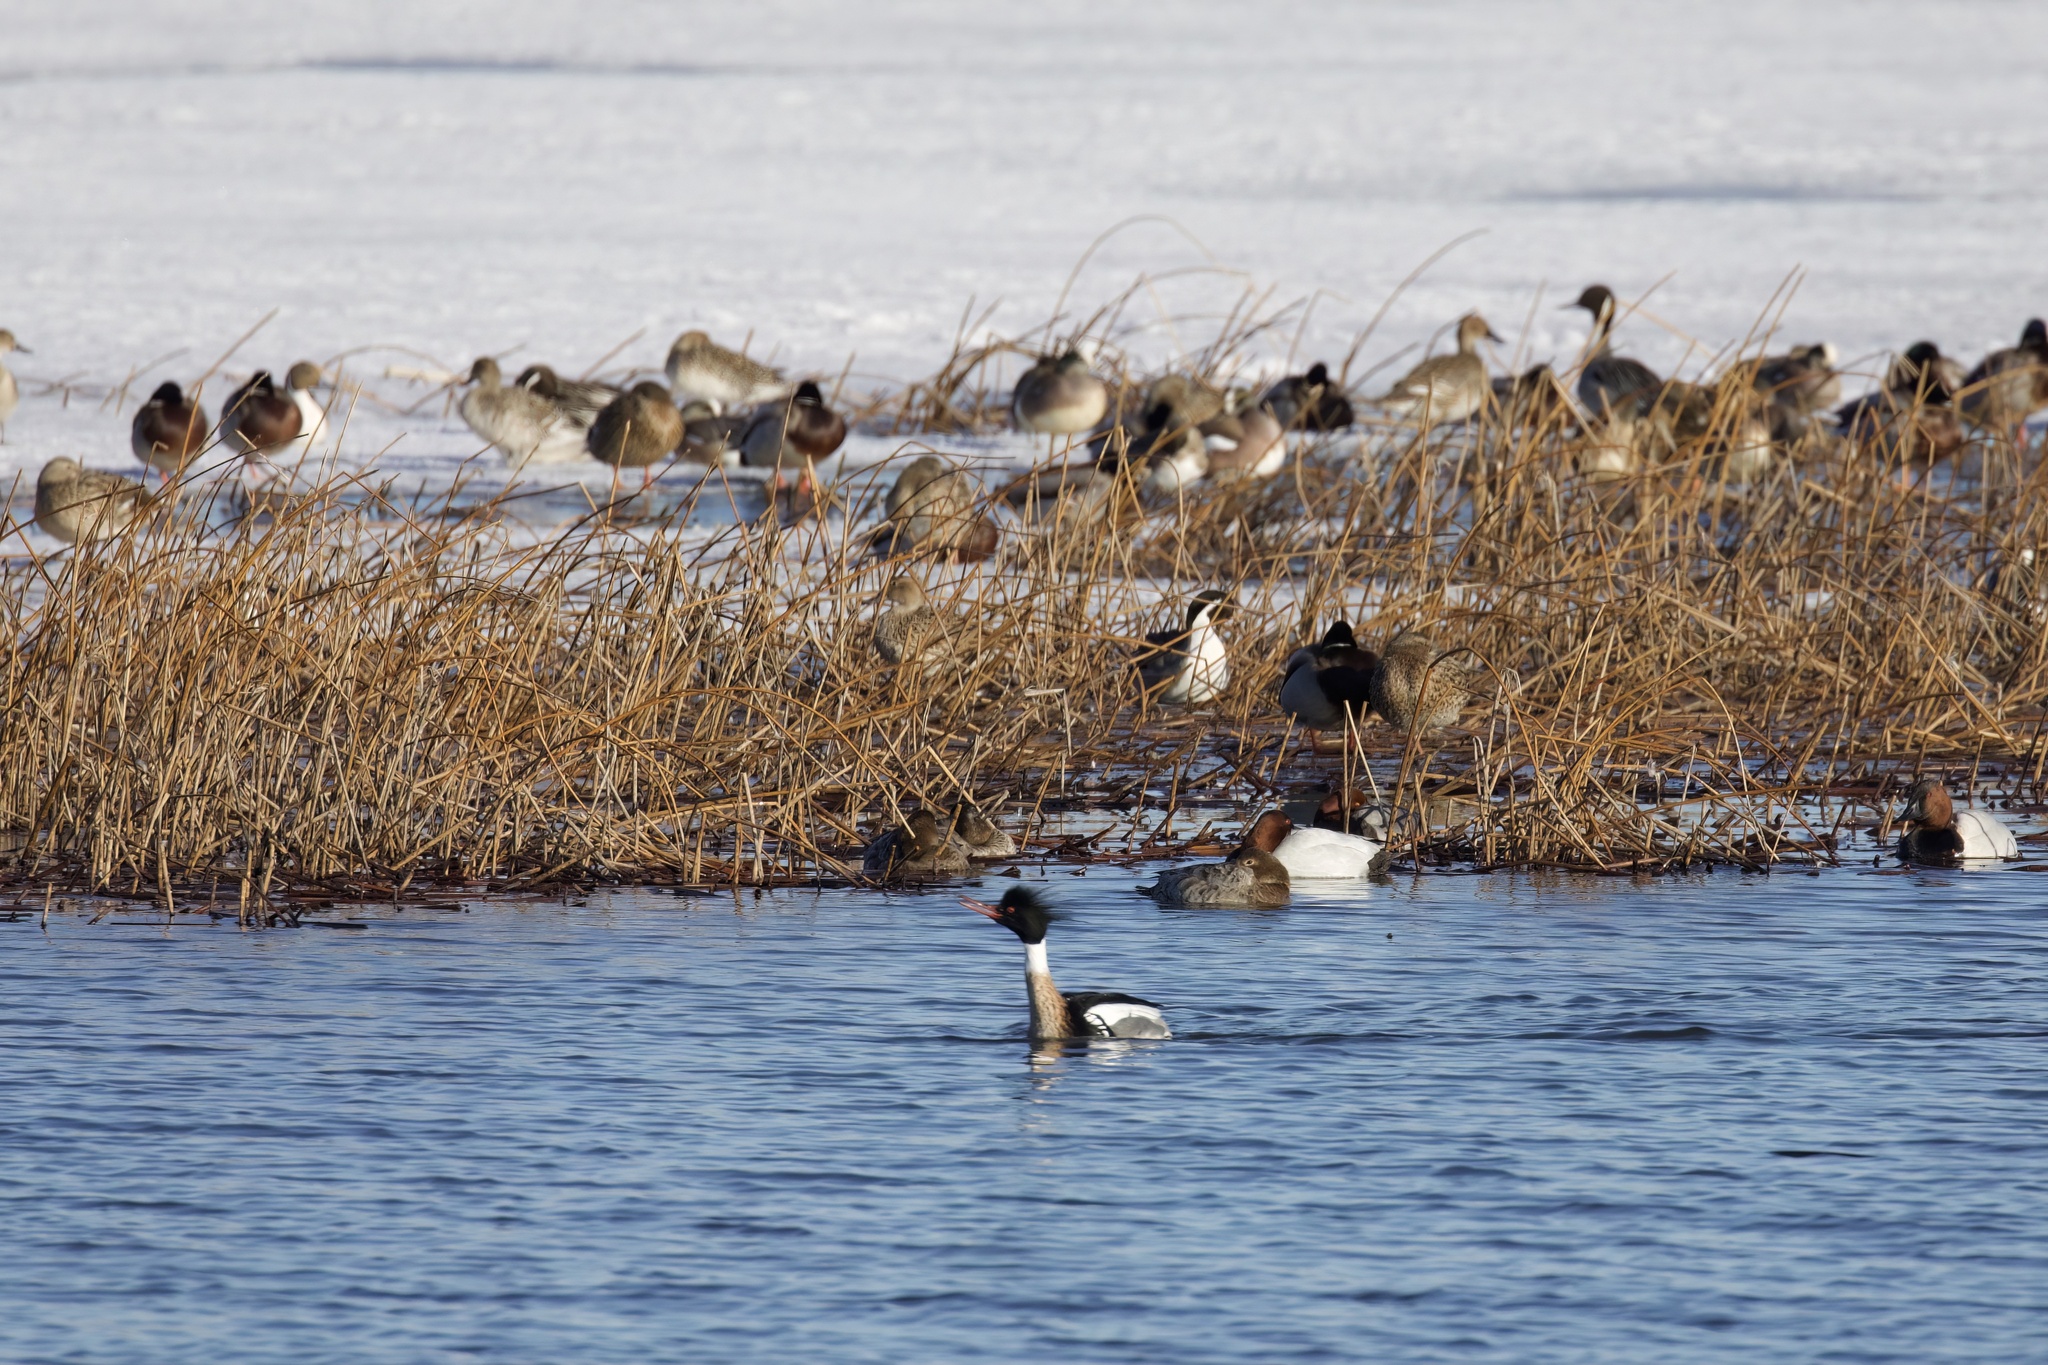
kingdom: Animalia
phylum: Chordata
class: Aves
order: Anseriformes
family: Anatidae
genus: Mergus
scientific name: Mergus serrator
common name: Red-breasted merganser
